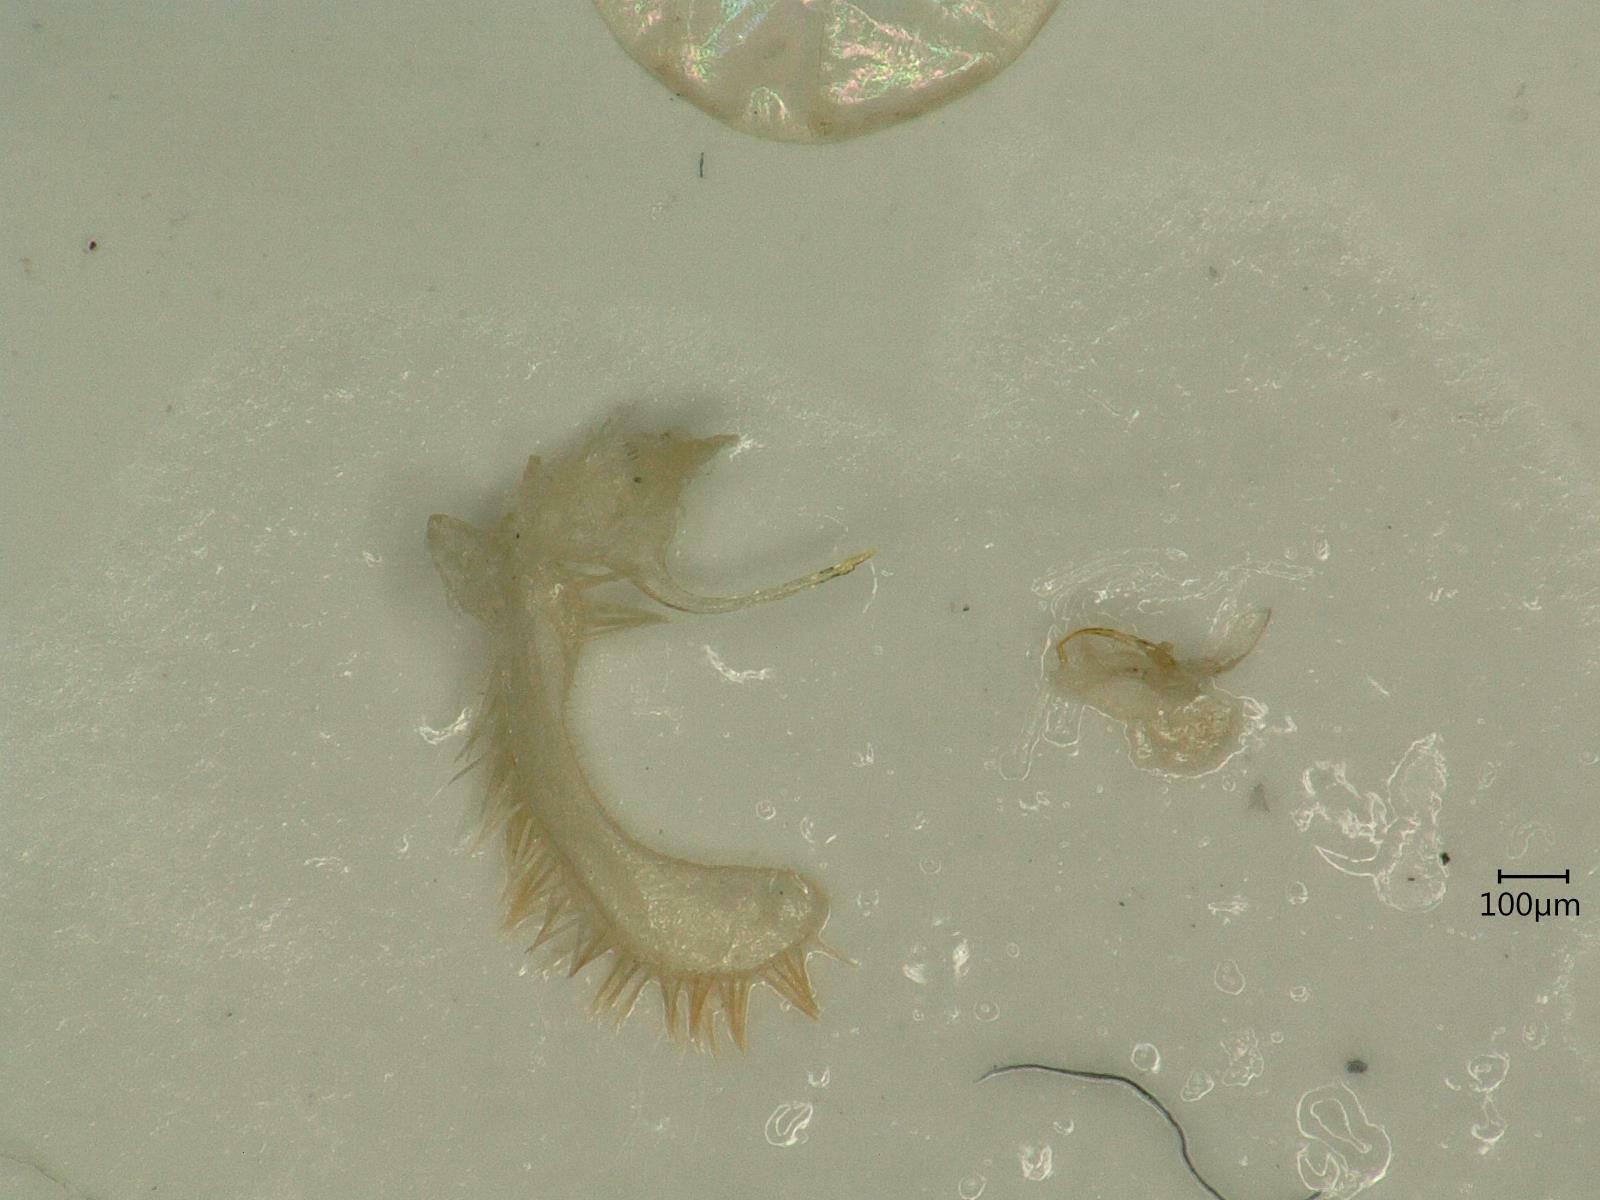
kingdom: Animalia
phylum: Arthropoda
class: Insecta
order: Hemiptera
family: Cicadellidae
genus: Kybos
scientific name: Kybos rufescens
